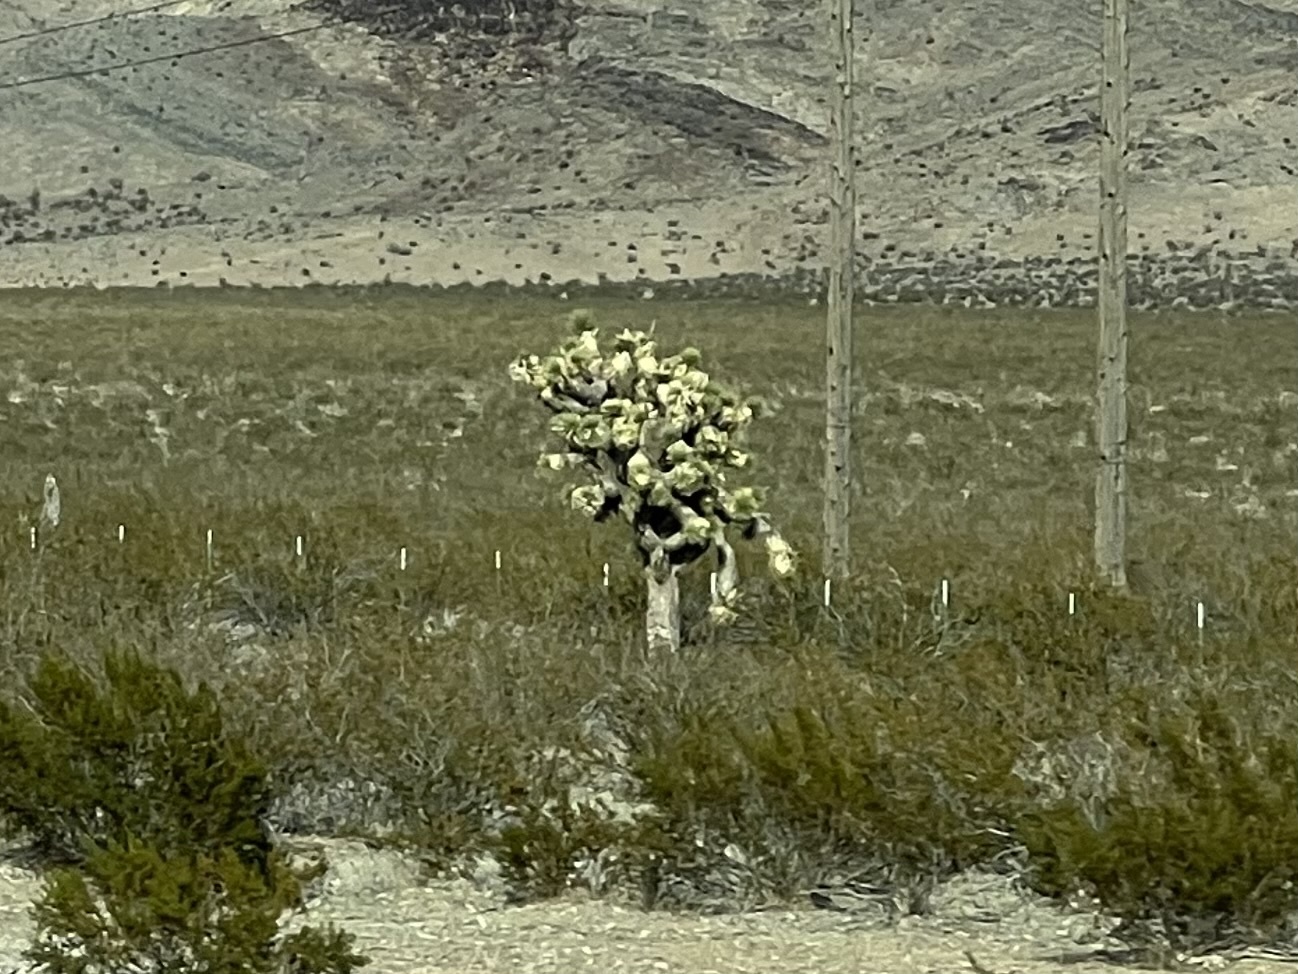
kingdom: Plantae
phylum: Tracheophyta
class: Liliopsida
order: Asparagales
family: Asparagaceae
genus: Yucca
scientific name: Yucca brevifolia
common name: Joshua tree
